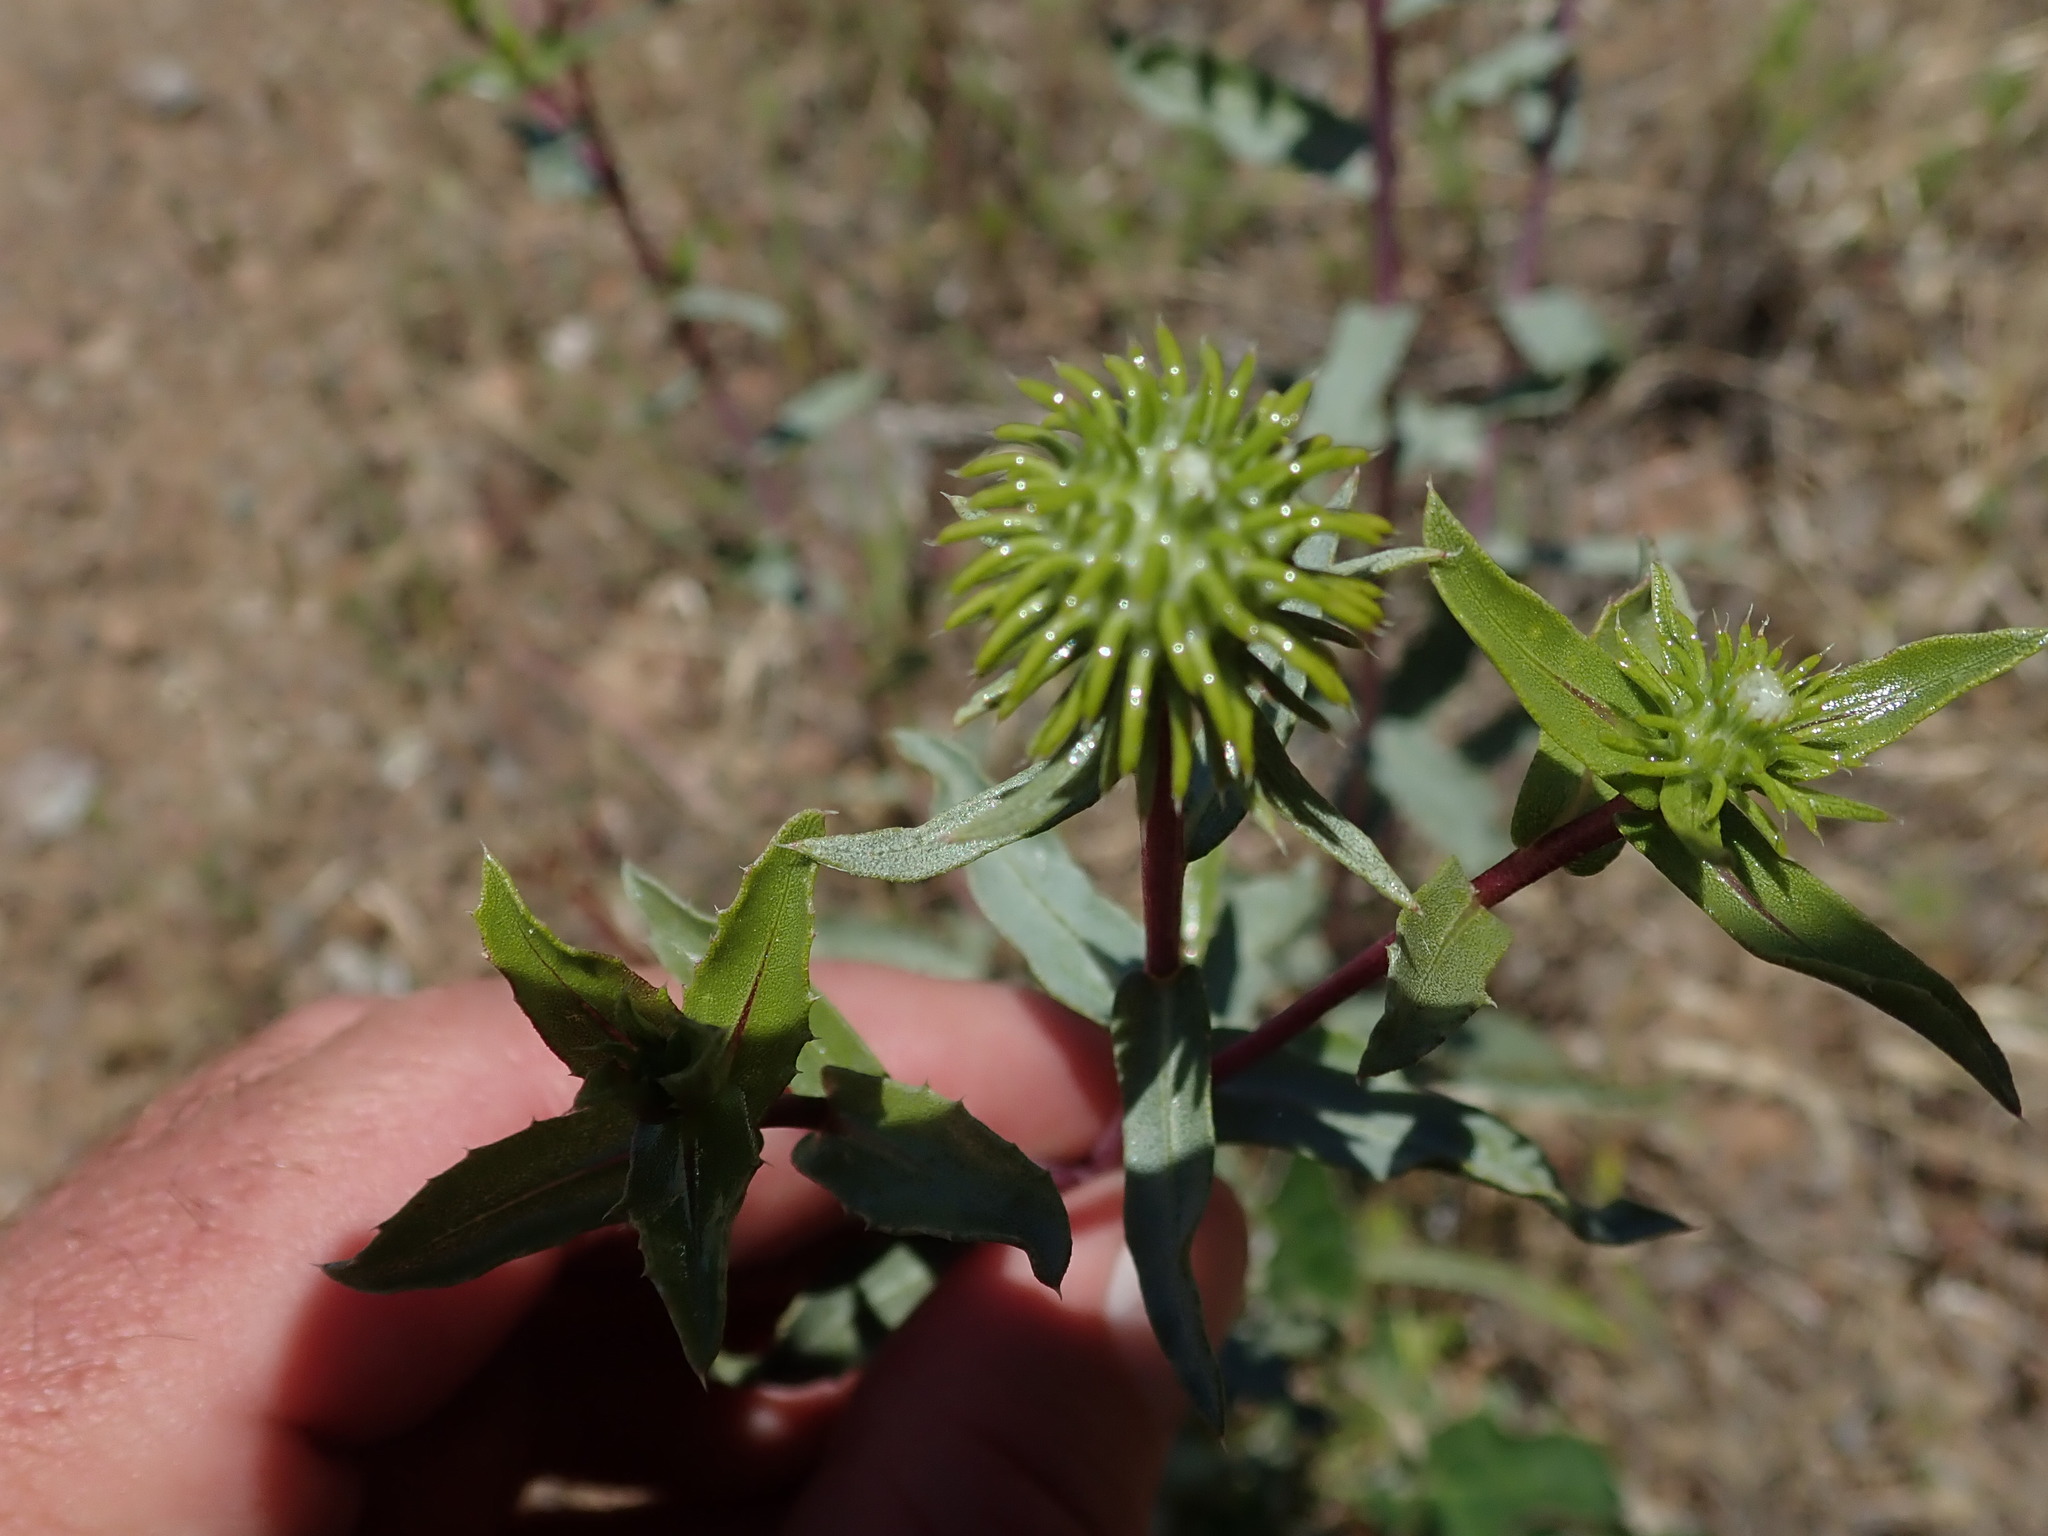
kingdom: Plantae
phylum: Tracheophyta
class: Magnoliopsida
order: Asterales
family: Asteraceae
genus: Grindelia
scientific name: Grindelia hirsutula
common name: Hairy gumweed
